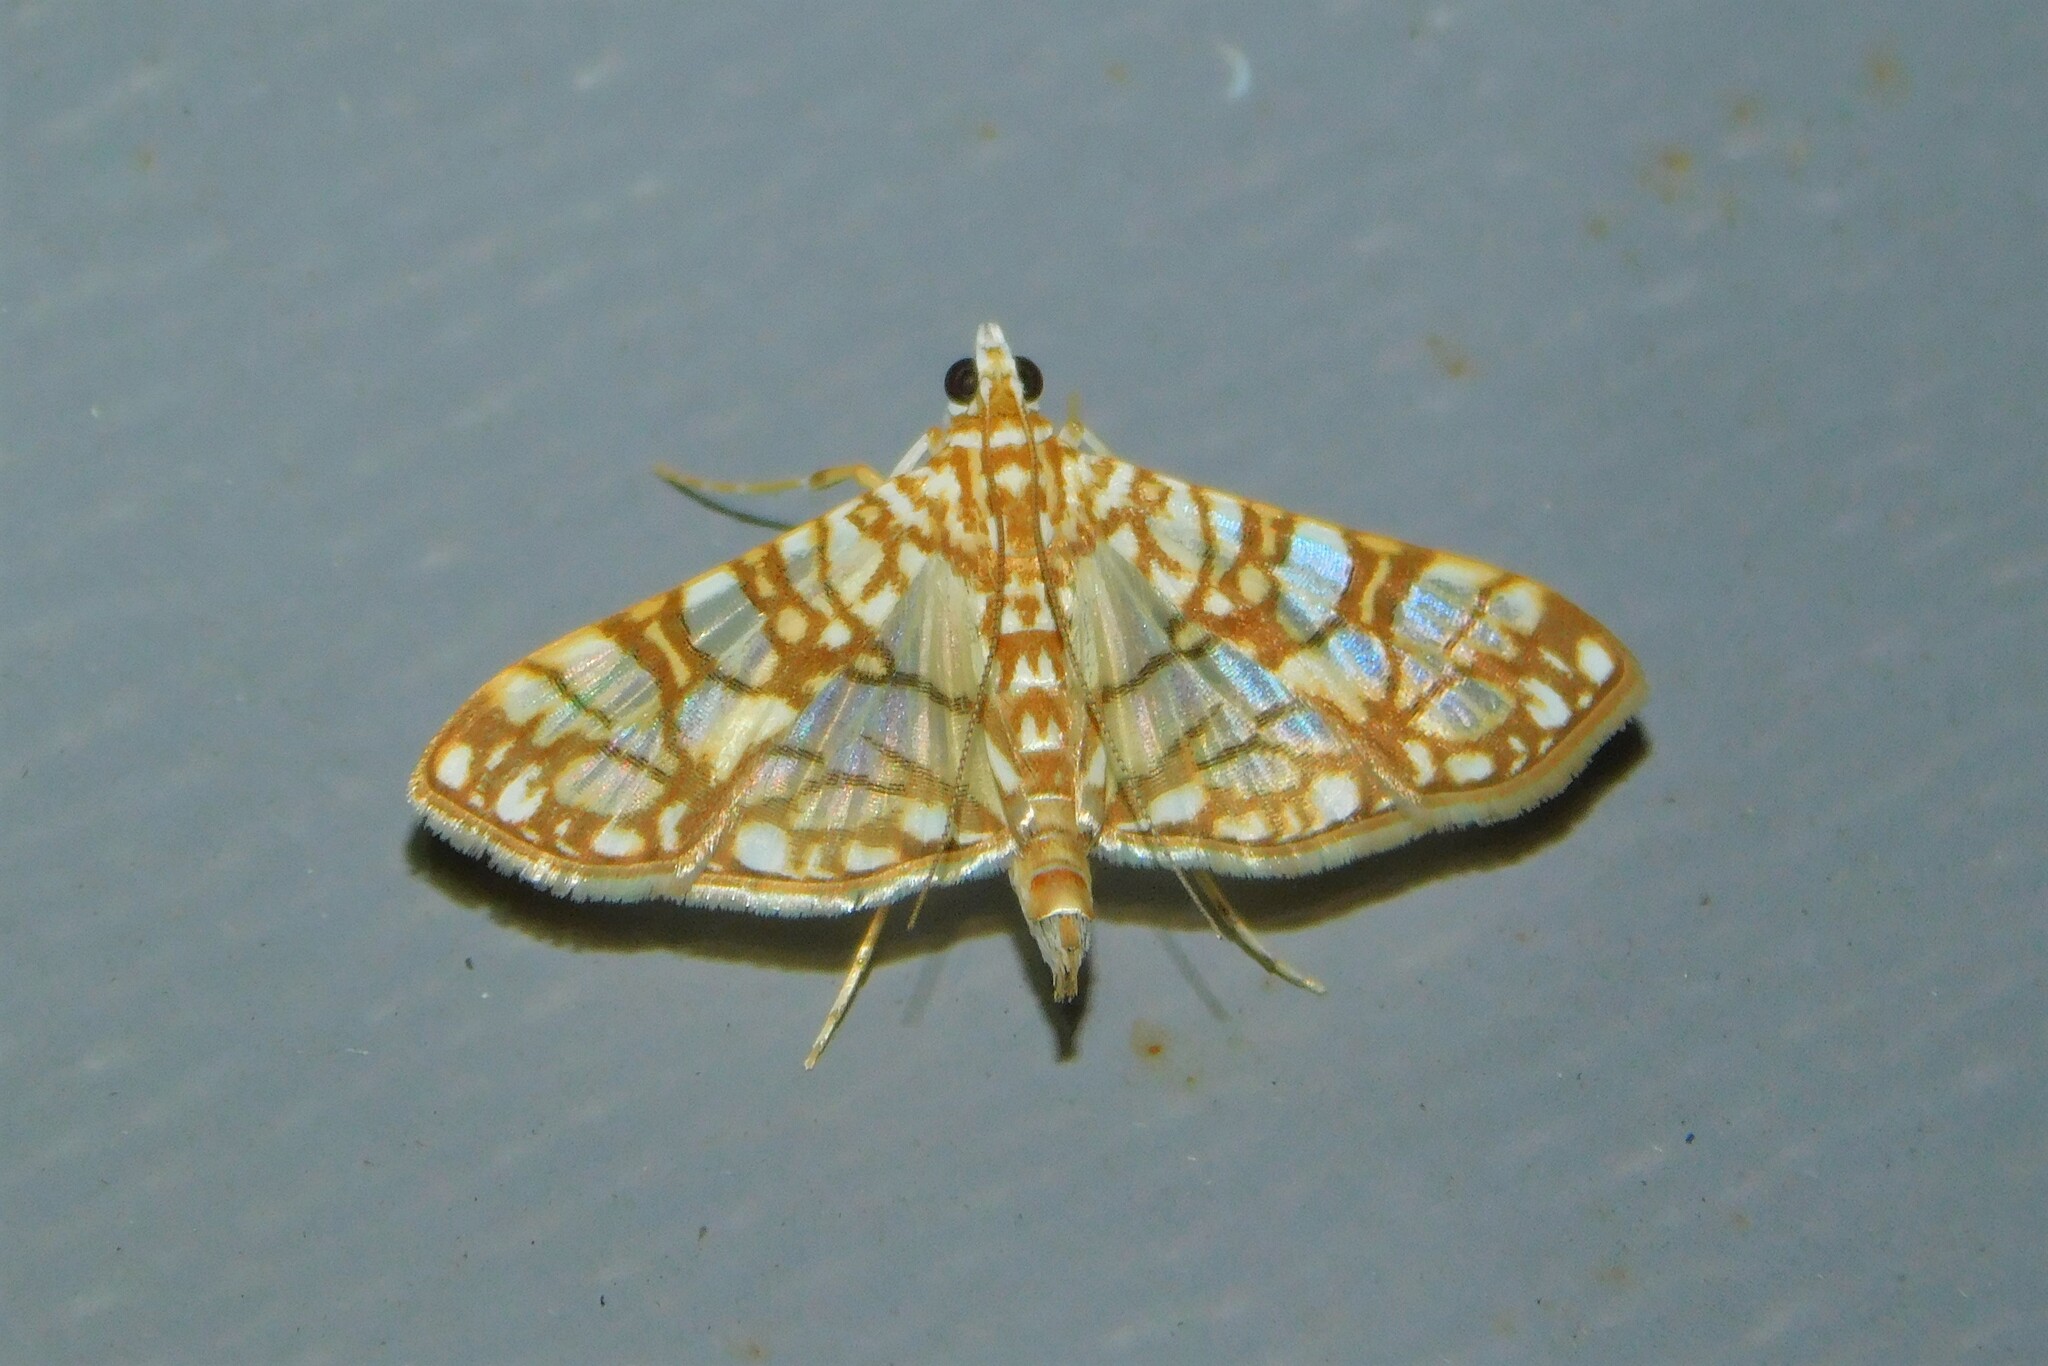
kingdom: Animalia
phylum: Arthropoda
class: Insecta
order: Lepidoptera
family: Crambidae
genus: Synclera
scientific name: Synclera traducalis
